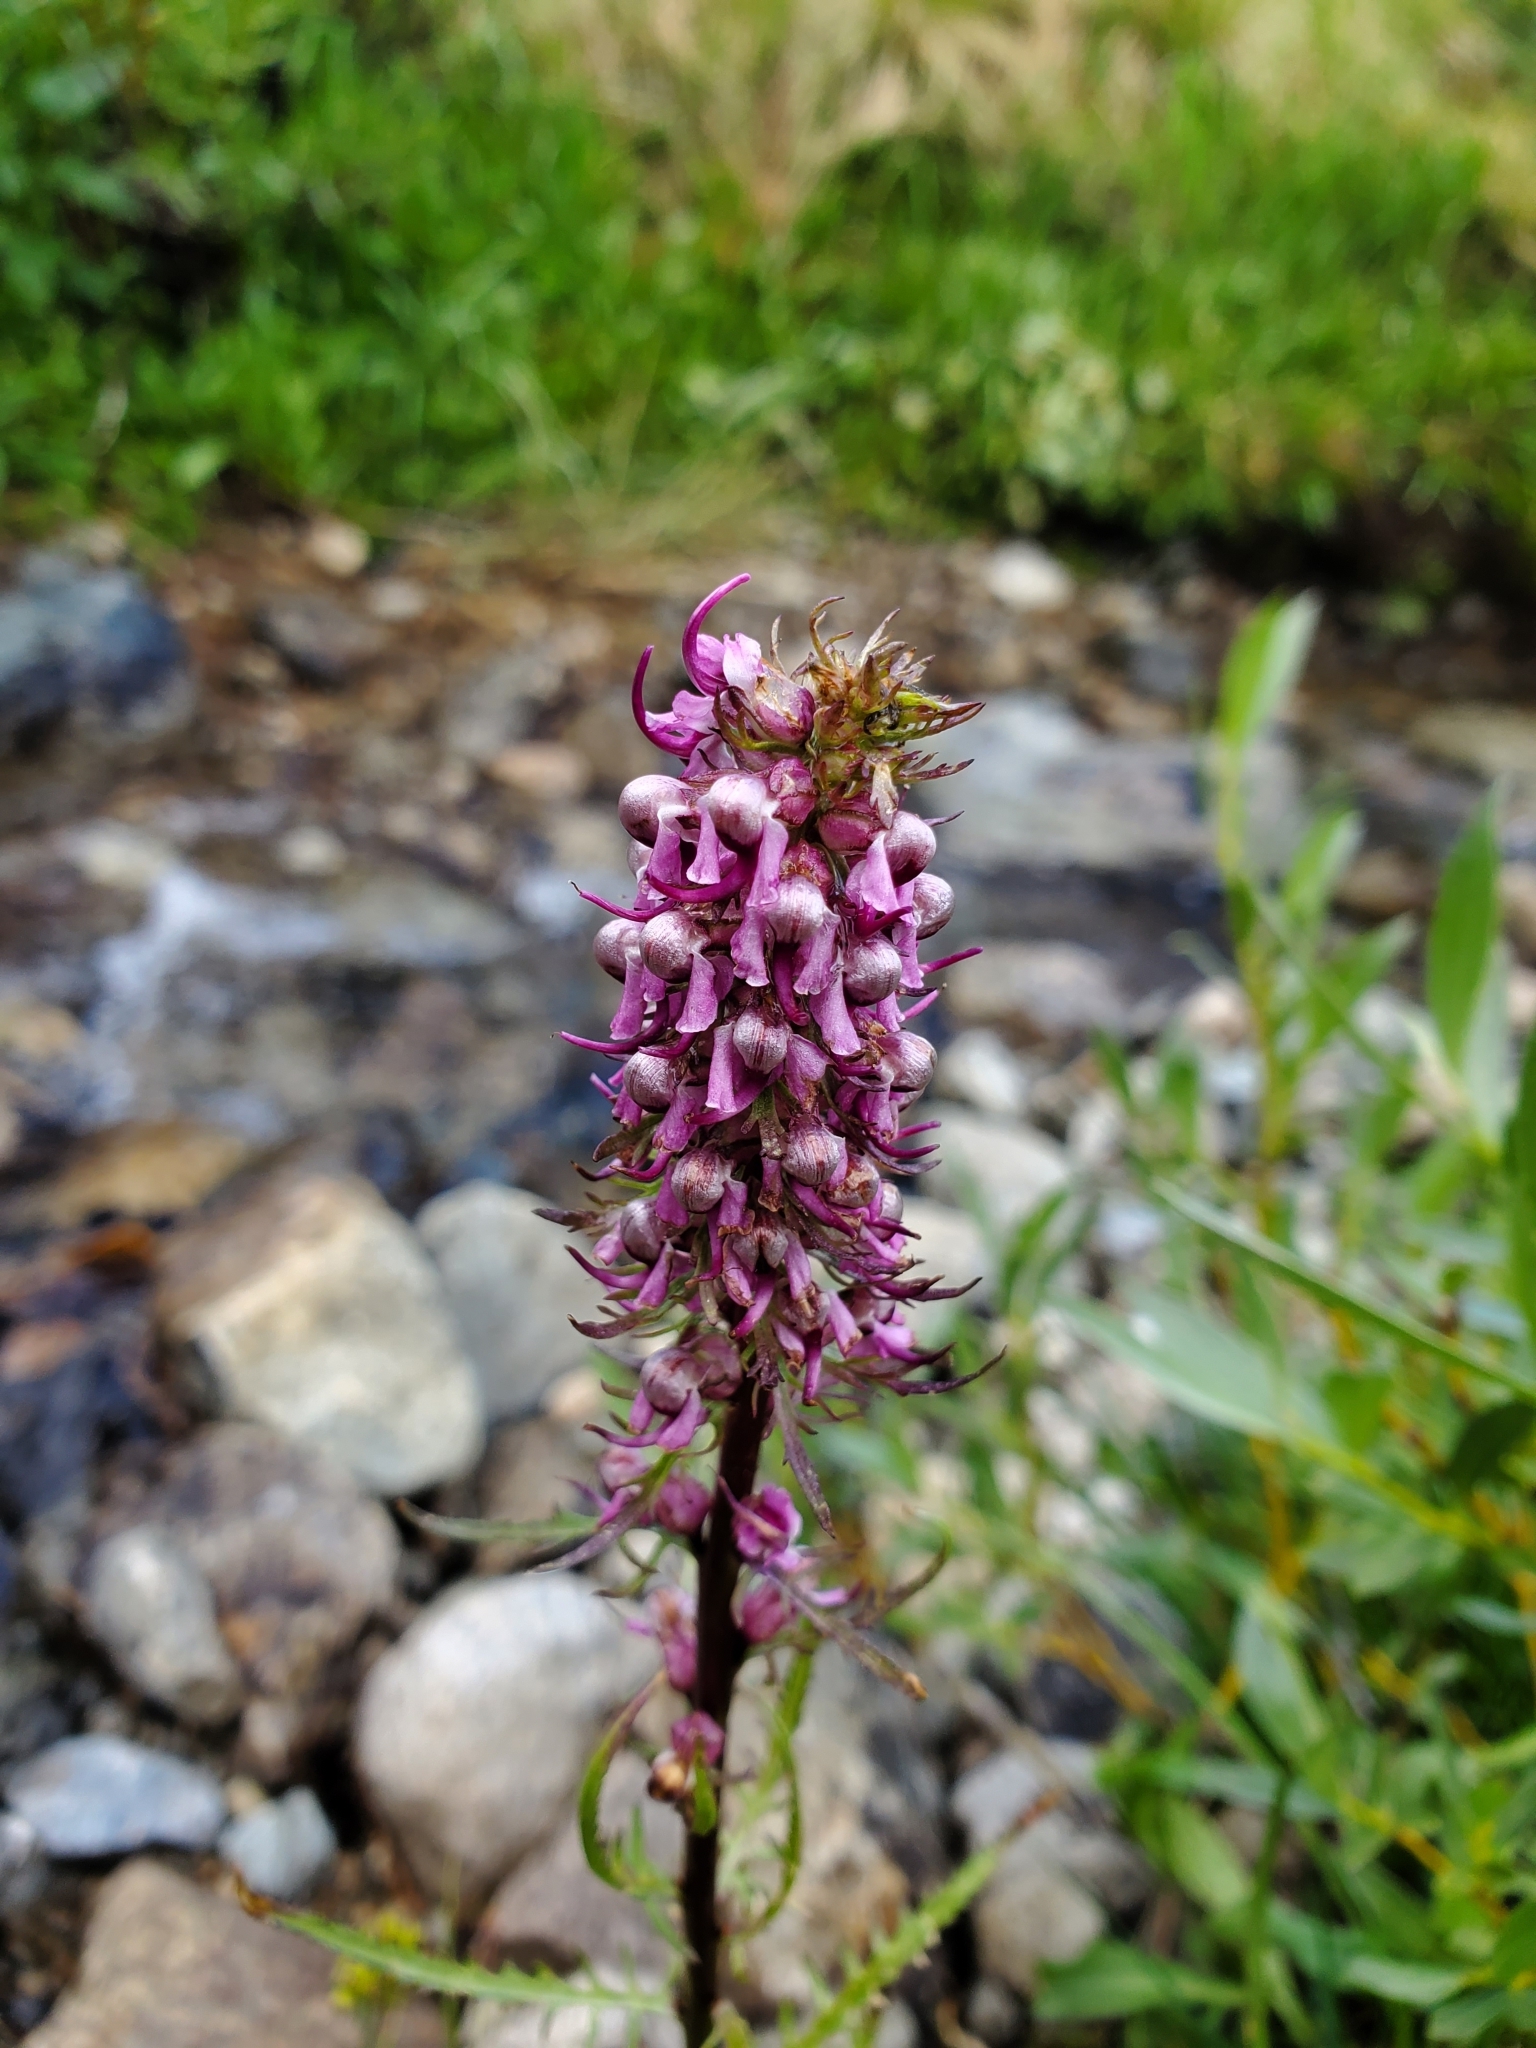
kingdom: Plantae
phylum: Tracheophyta
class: Magnoliopsida
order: Lamiales
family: Orobanchaceae
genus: Pedicularis
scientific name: Pedicularis groenlandica
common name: Elephant's-head
